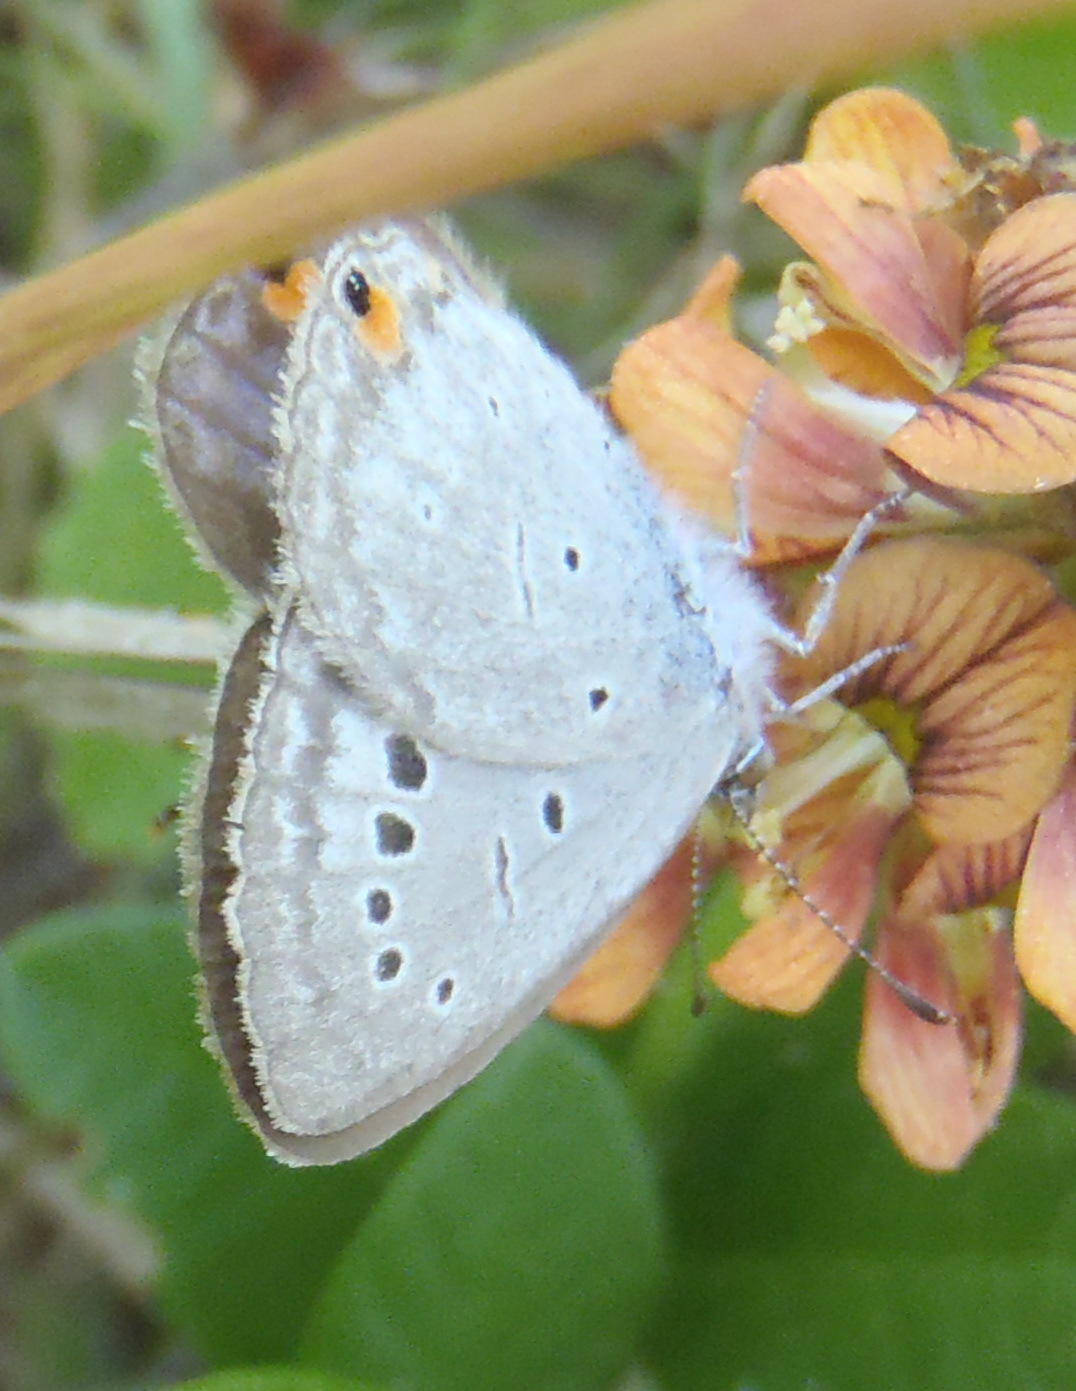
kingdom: Animalia
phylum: Arthropoda
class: Insecta
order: Lepidoptera
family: Lycaenidae
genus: Cupido
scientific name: Cupido cissus
